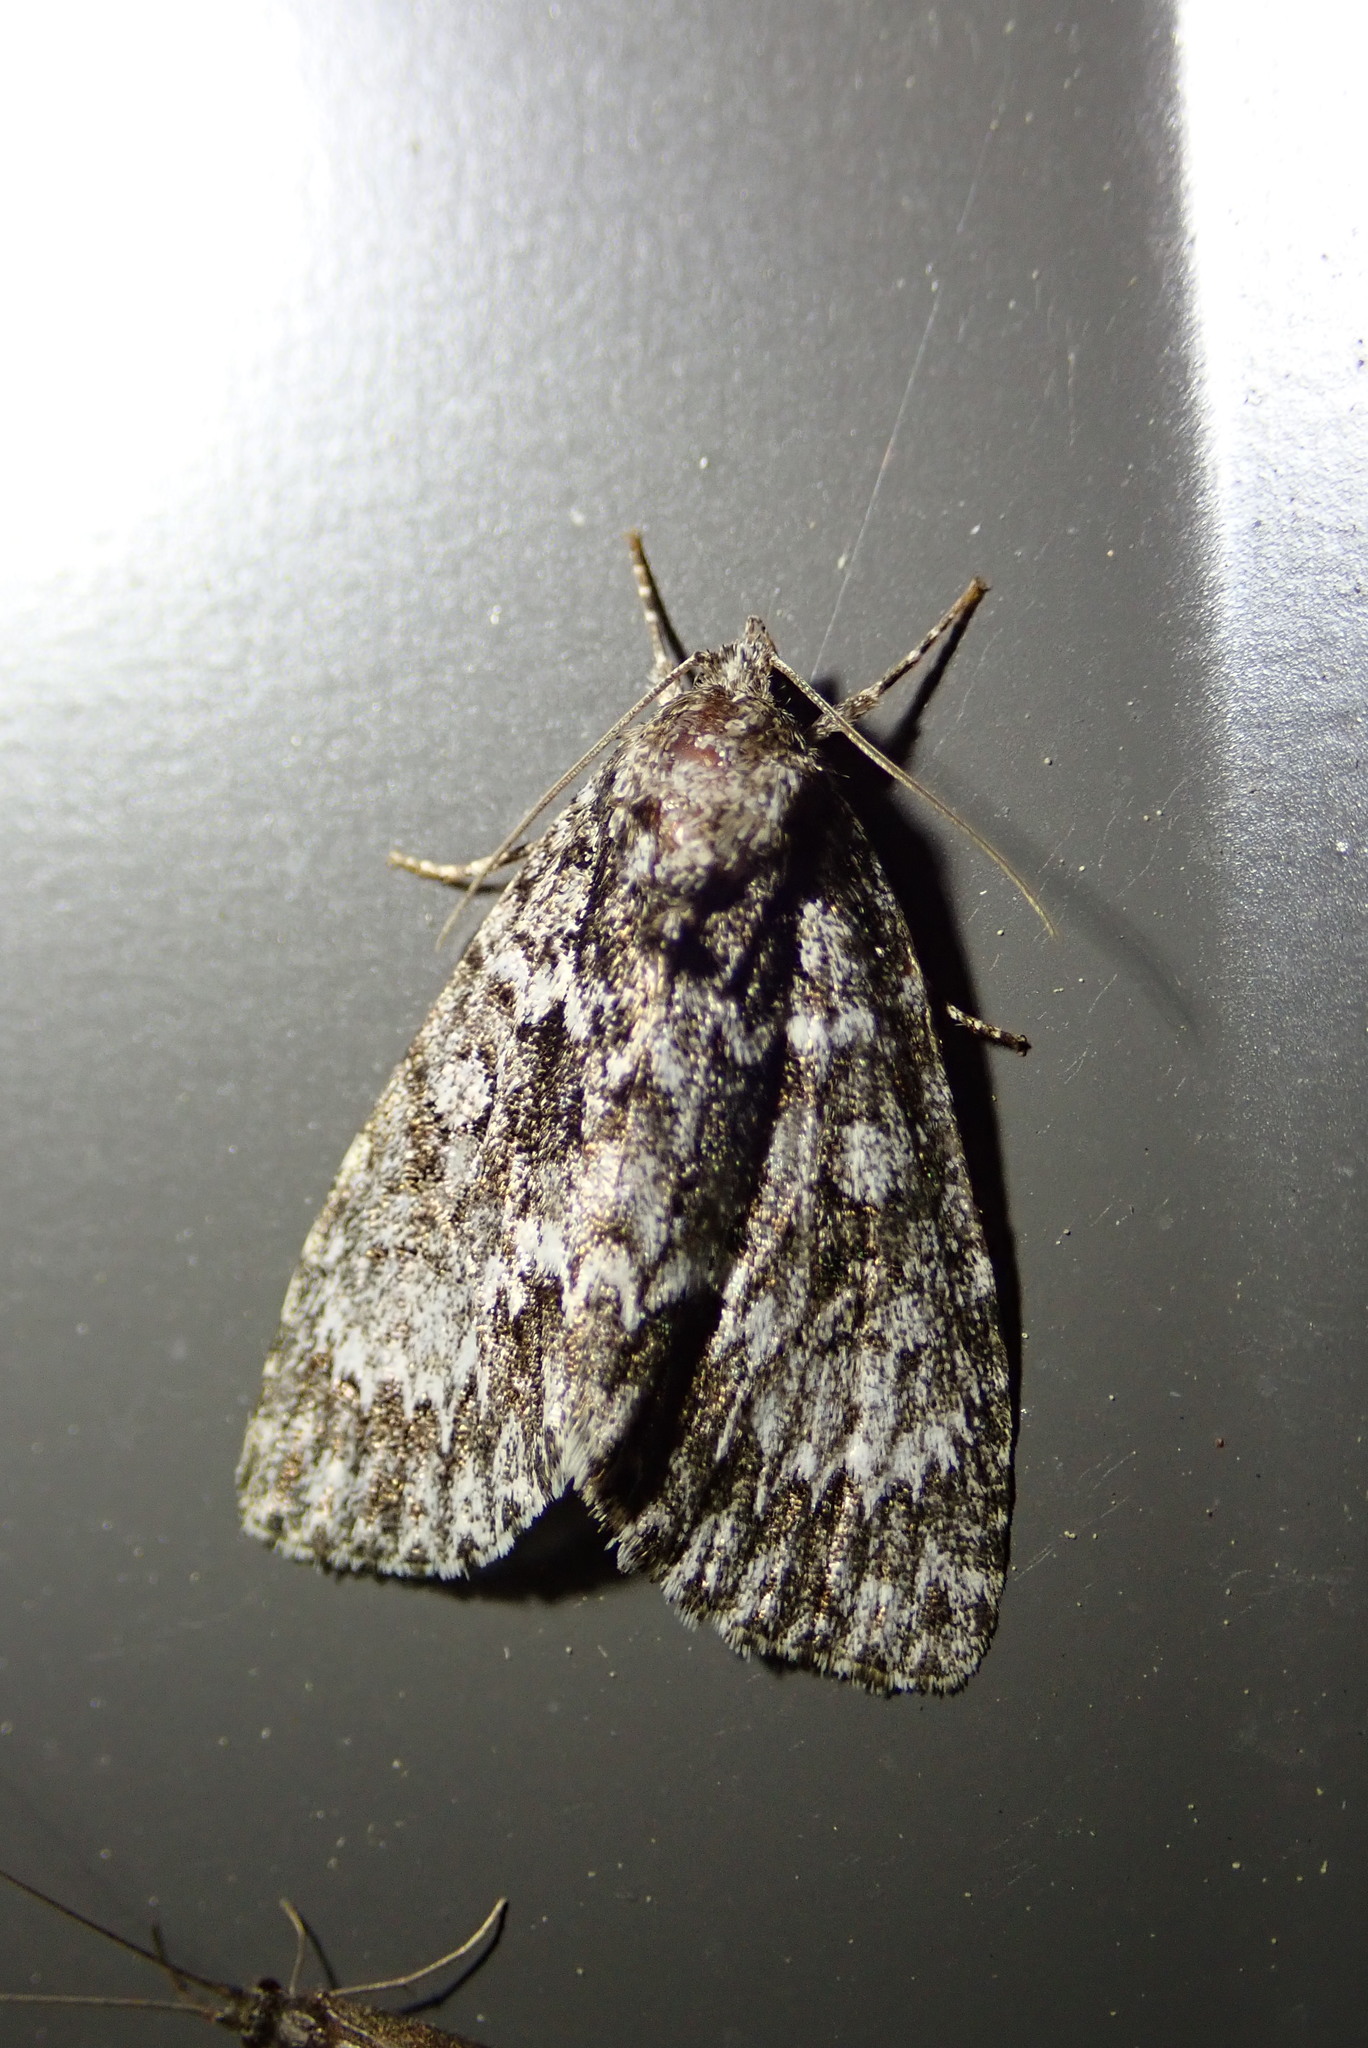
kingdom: Animalia
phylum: Arthropoda
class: Insecta
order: Lepidoptera
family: Noctuidae
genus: Acronicta
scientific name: Acronicta fragilis
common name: Fragile dagger
